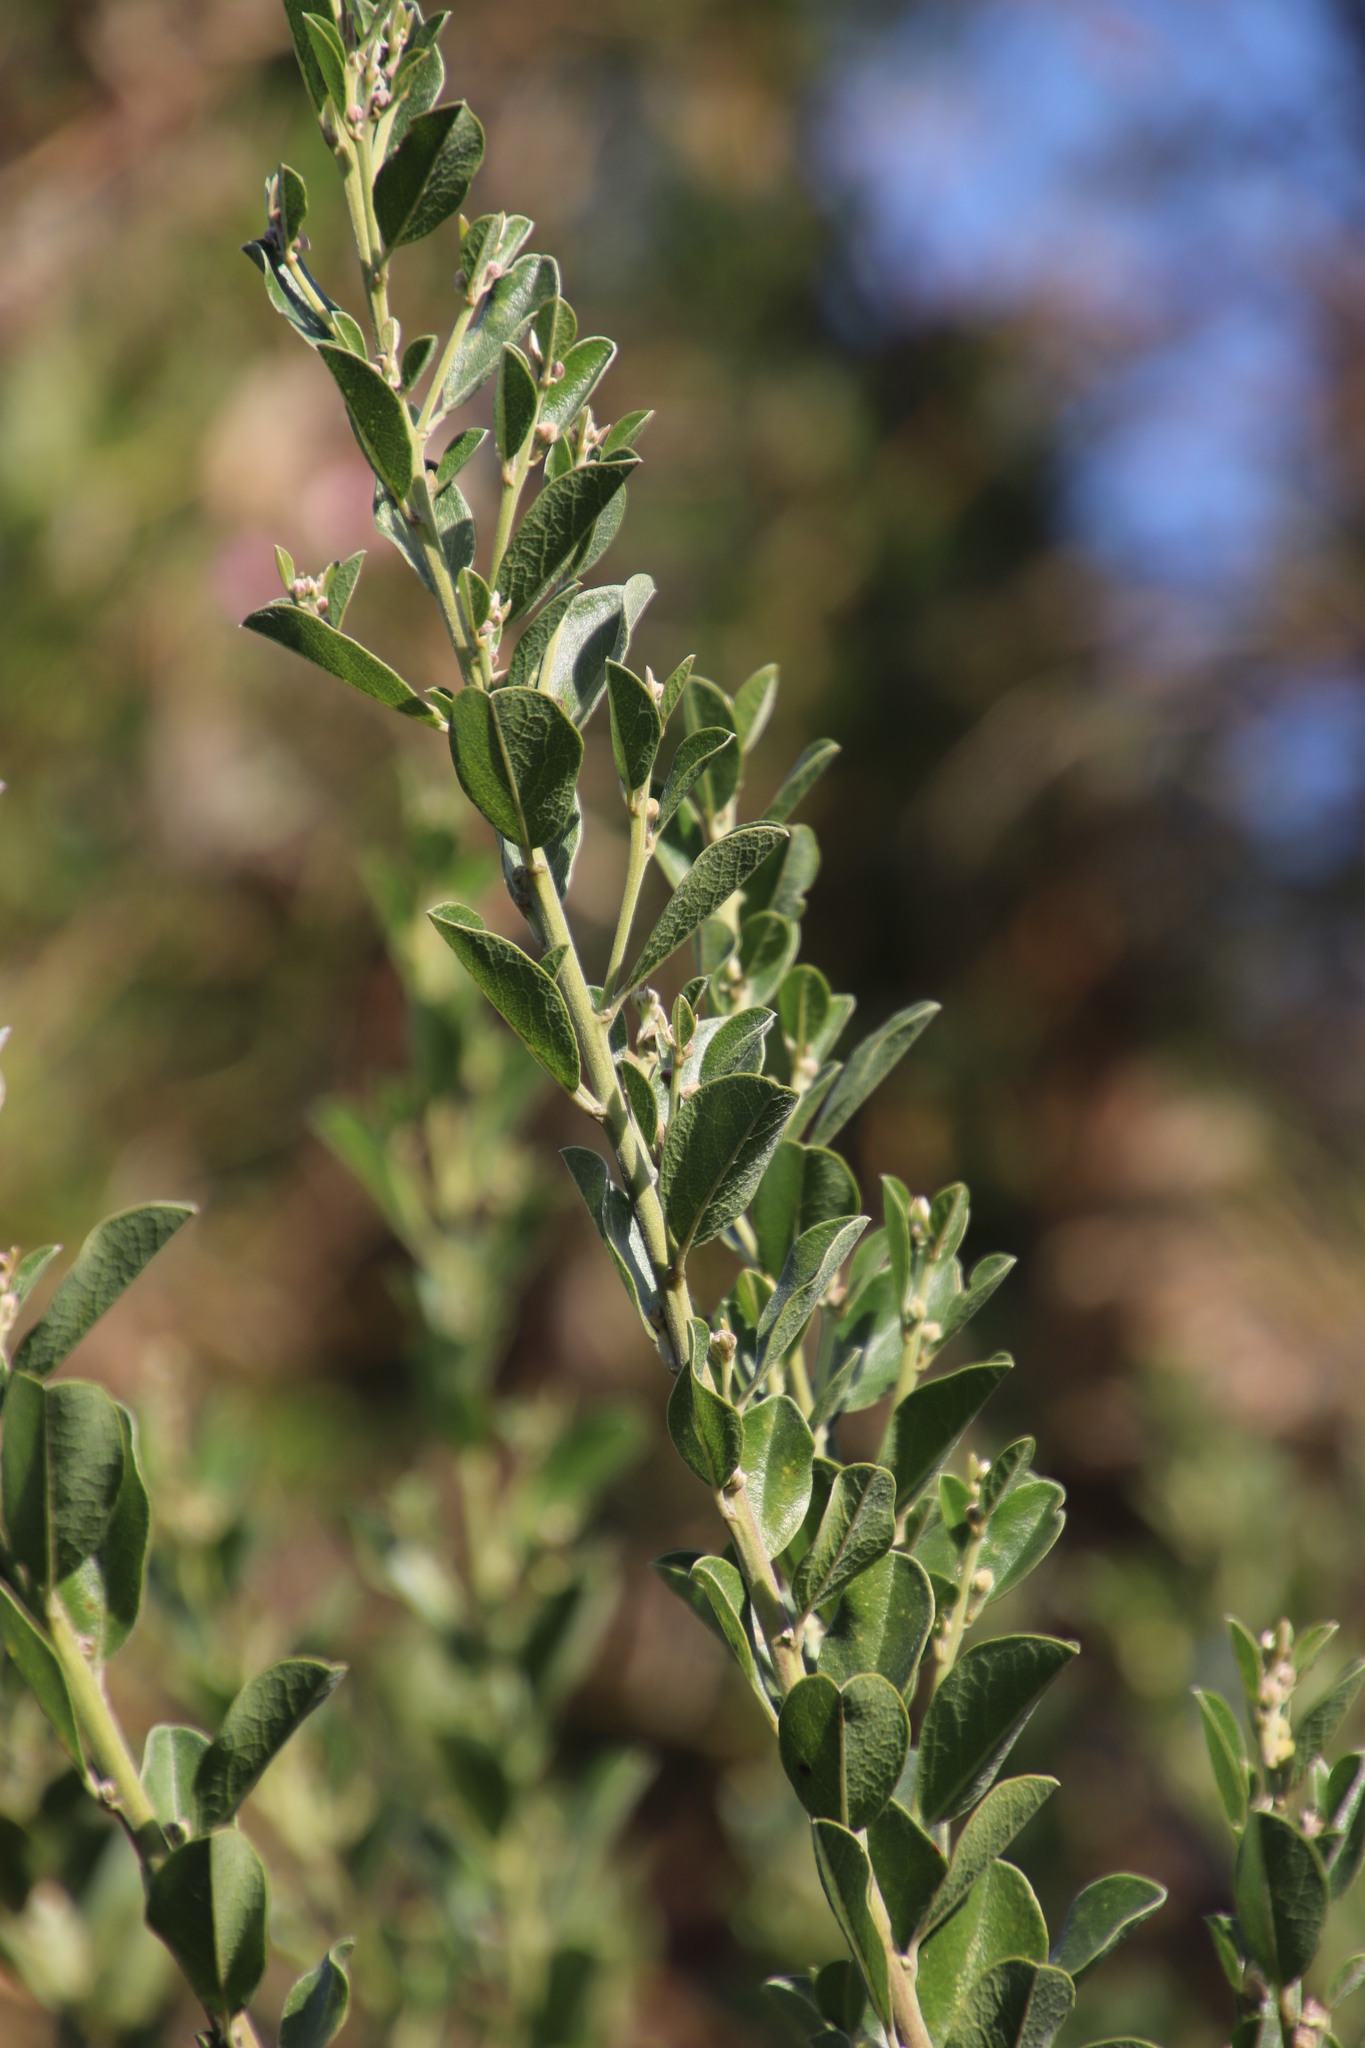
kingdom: Plantae
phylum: Tracheophyta
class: Magnoliopsida
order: Fabales
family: Fabaceae
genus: Podalyria
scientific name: Podalyria calyptrata
